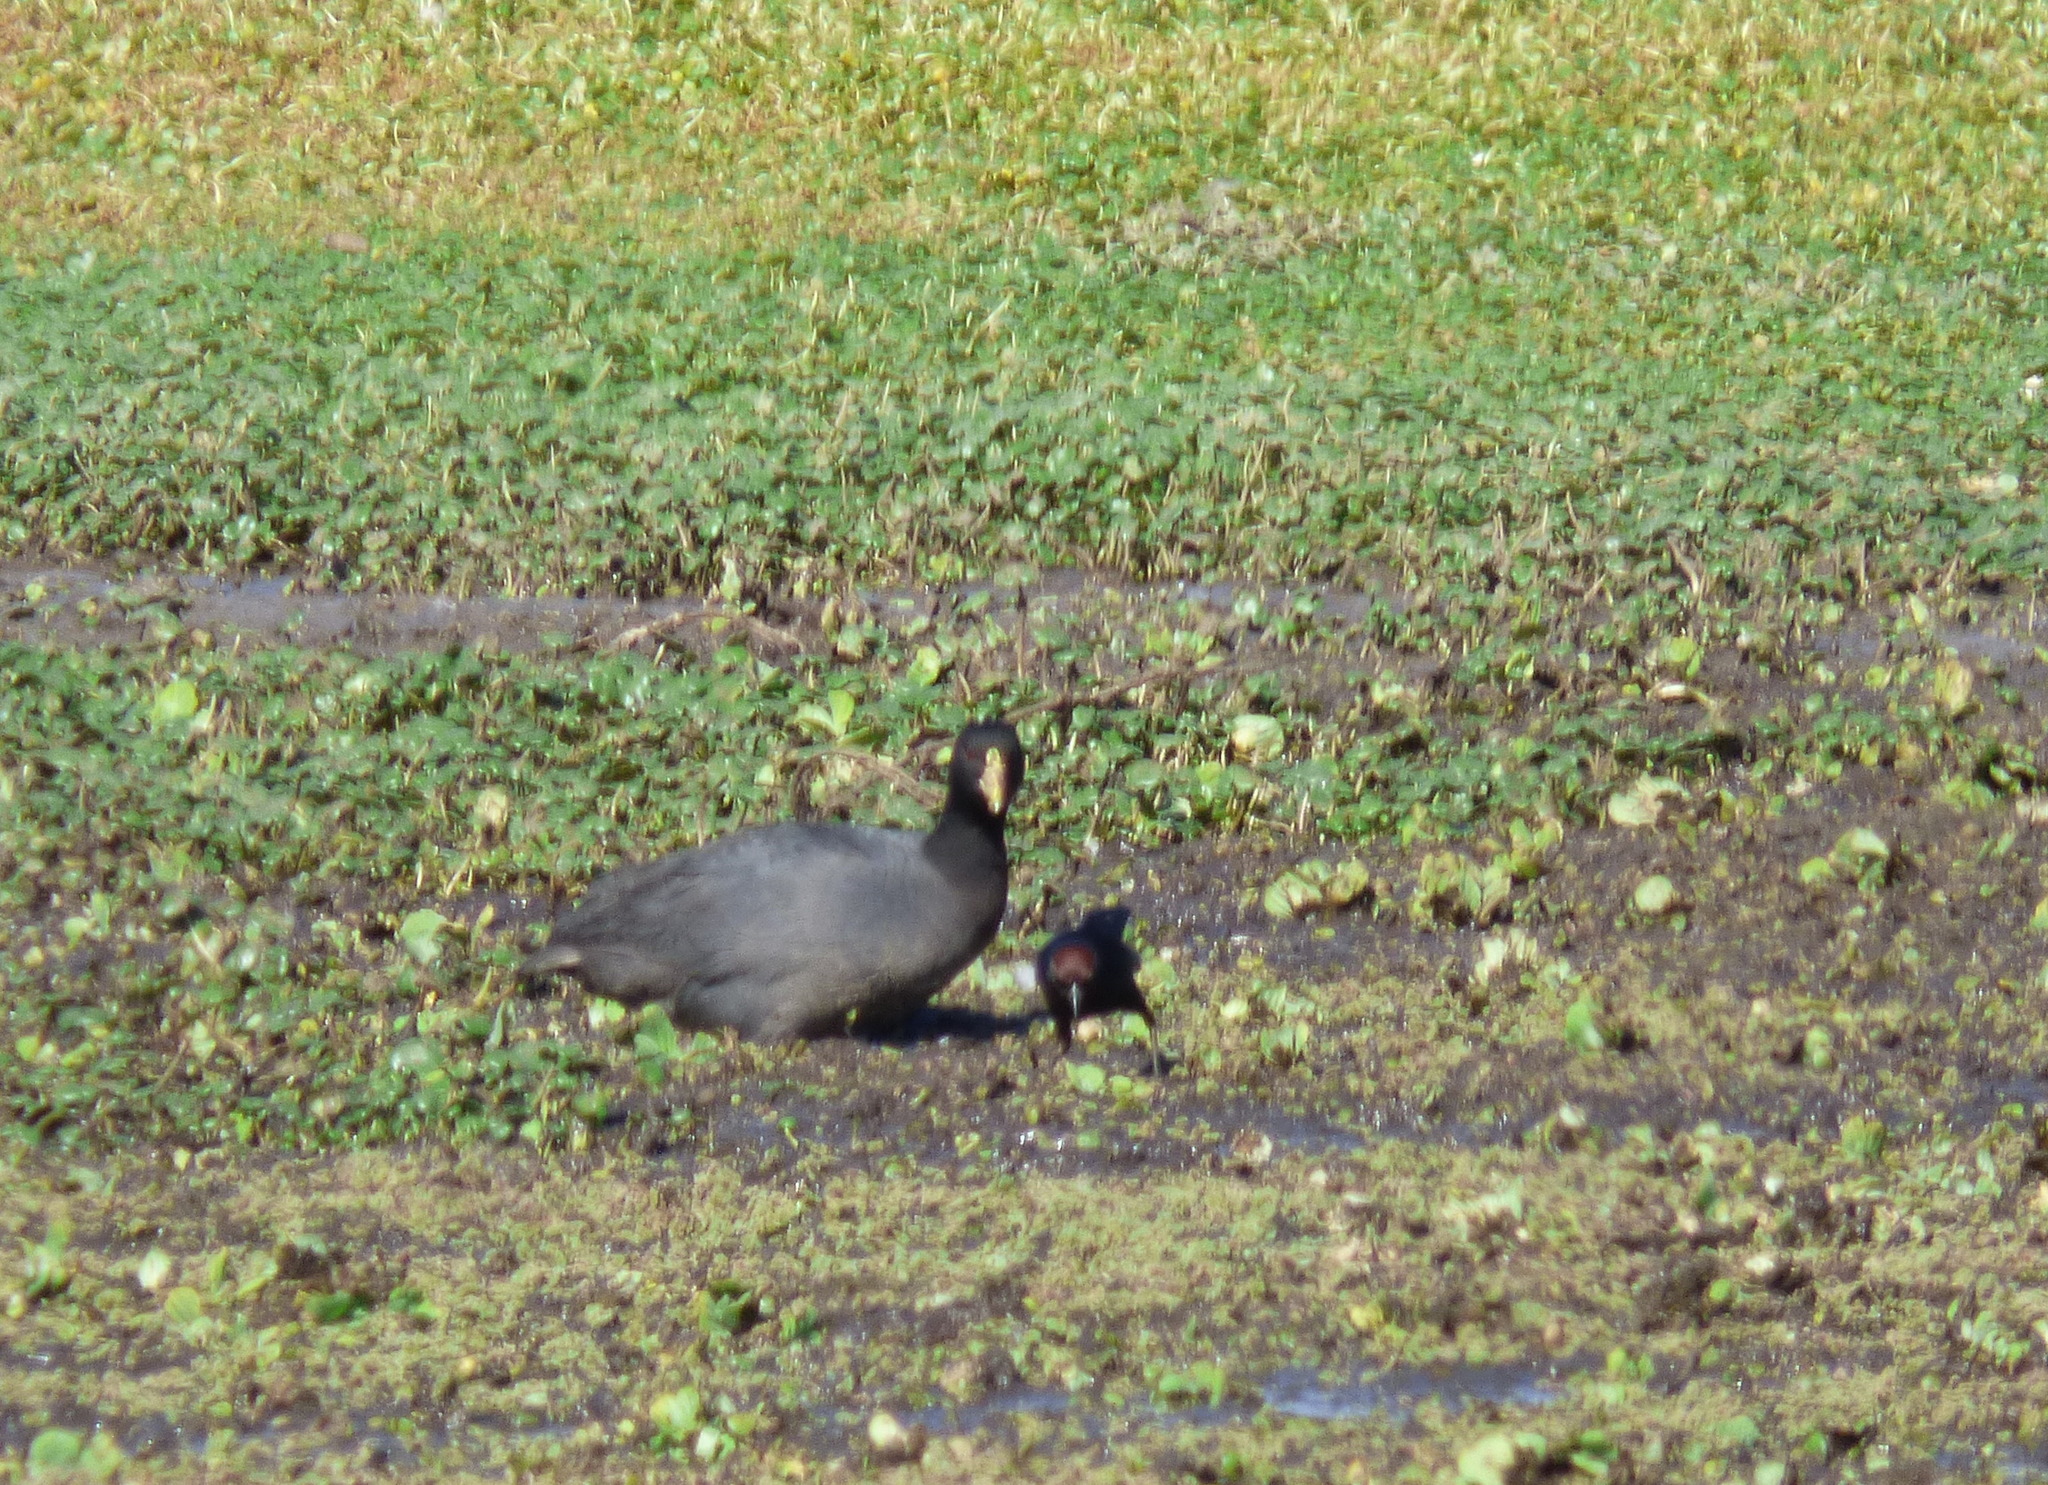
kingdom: Animalia
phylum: Chordata
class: Aves
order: Gruiformes
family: Rallidae
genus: Fulica
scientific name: Fulica leucoptera
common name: White-winged coot
